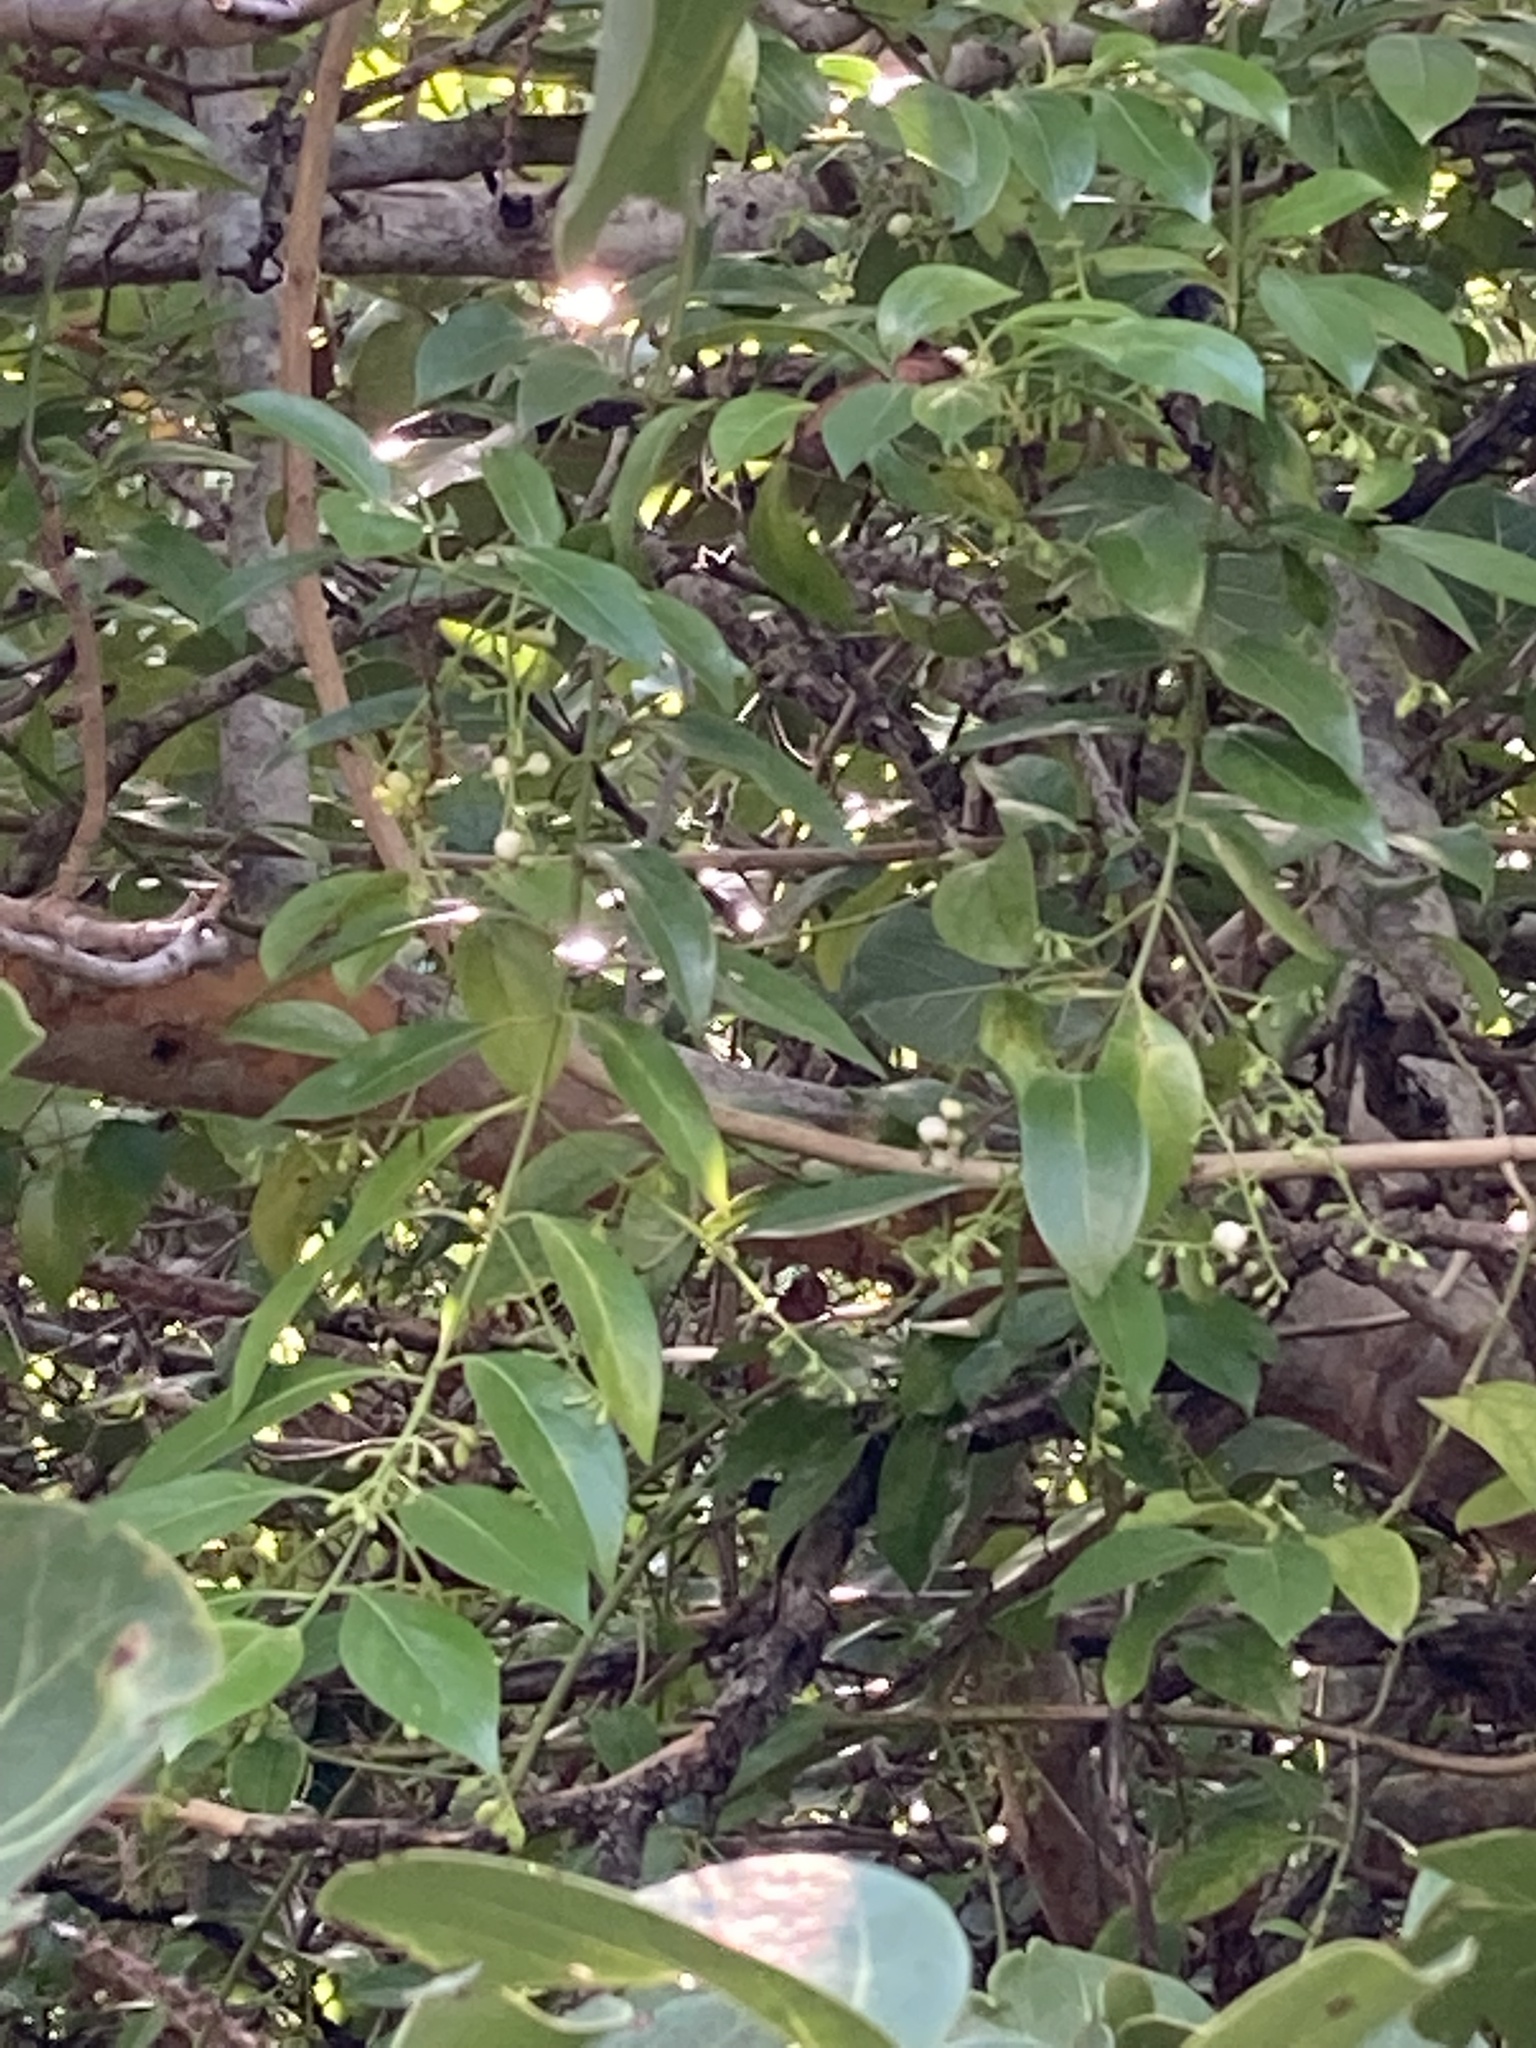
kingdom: Plantae
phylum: Tracheophyta
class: Magnoliopsida
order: Gentianales
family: Rubiaceae
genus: Chiococca
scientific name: Chiococca alba
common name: Snowberry
